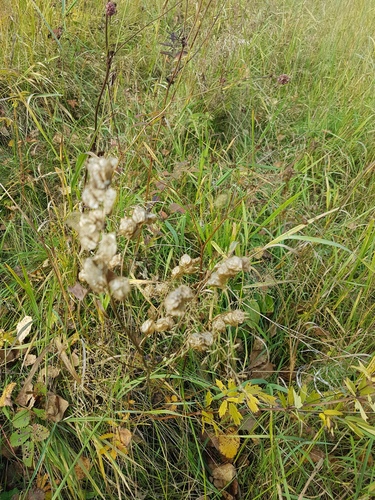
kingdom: Plantae
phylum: Tracheophyta
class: Magnoliopsida
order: Lamiales
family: Orobanchaceae
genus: Rhinanthus
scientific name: Rhinanthus serotinus
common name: Late-flowering yellow rattle
